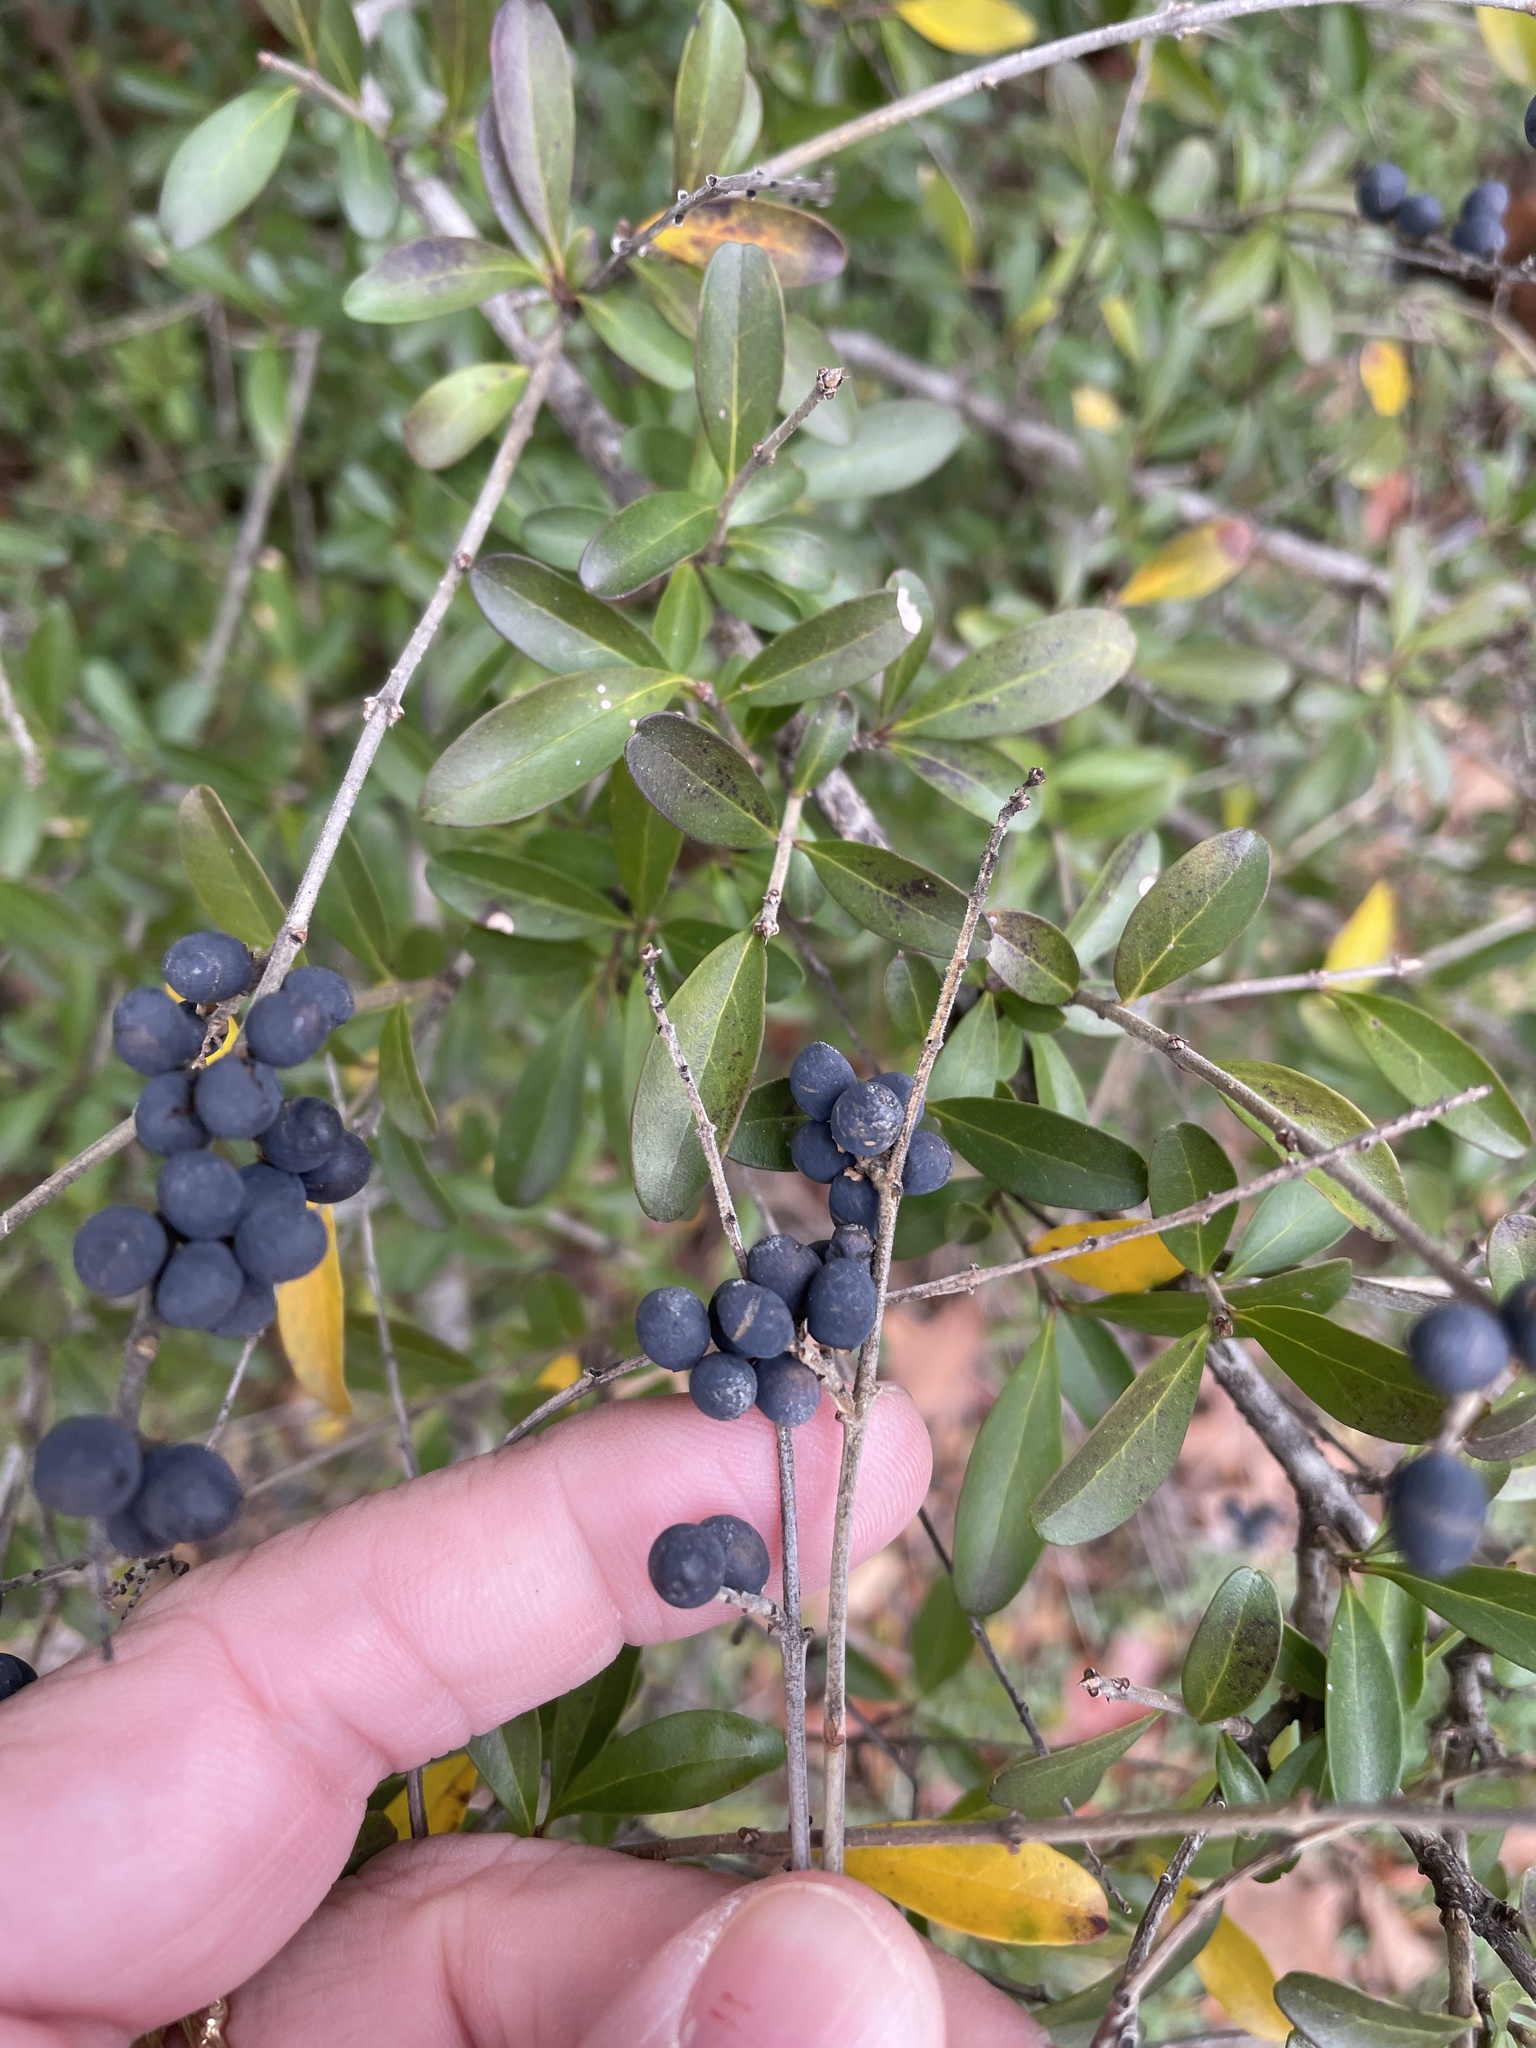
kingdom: Plantae
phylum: Tracheophyta
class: Magnoliopsida
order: Lamiales
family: Oleaceae
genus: Ligustrum
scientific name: Ligustrum quihoui
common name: Waxyleaf privet
